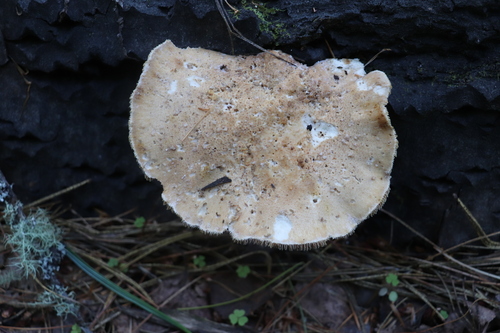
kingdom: Fungi
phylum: Basidiomycota
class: Agaricomycetes
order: Gloeophyllales
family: Gloeophyllaceae
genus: Neolentinus
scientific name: Neolentinus cyathiformis
